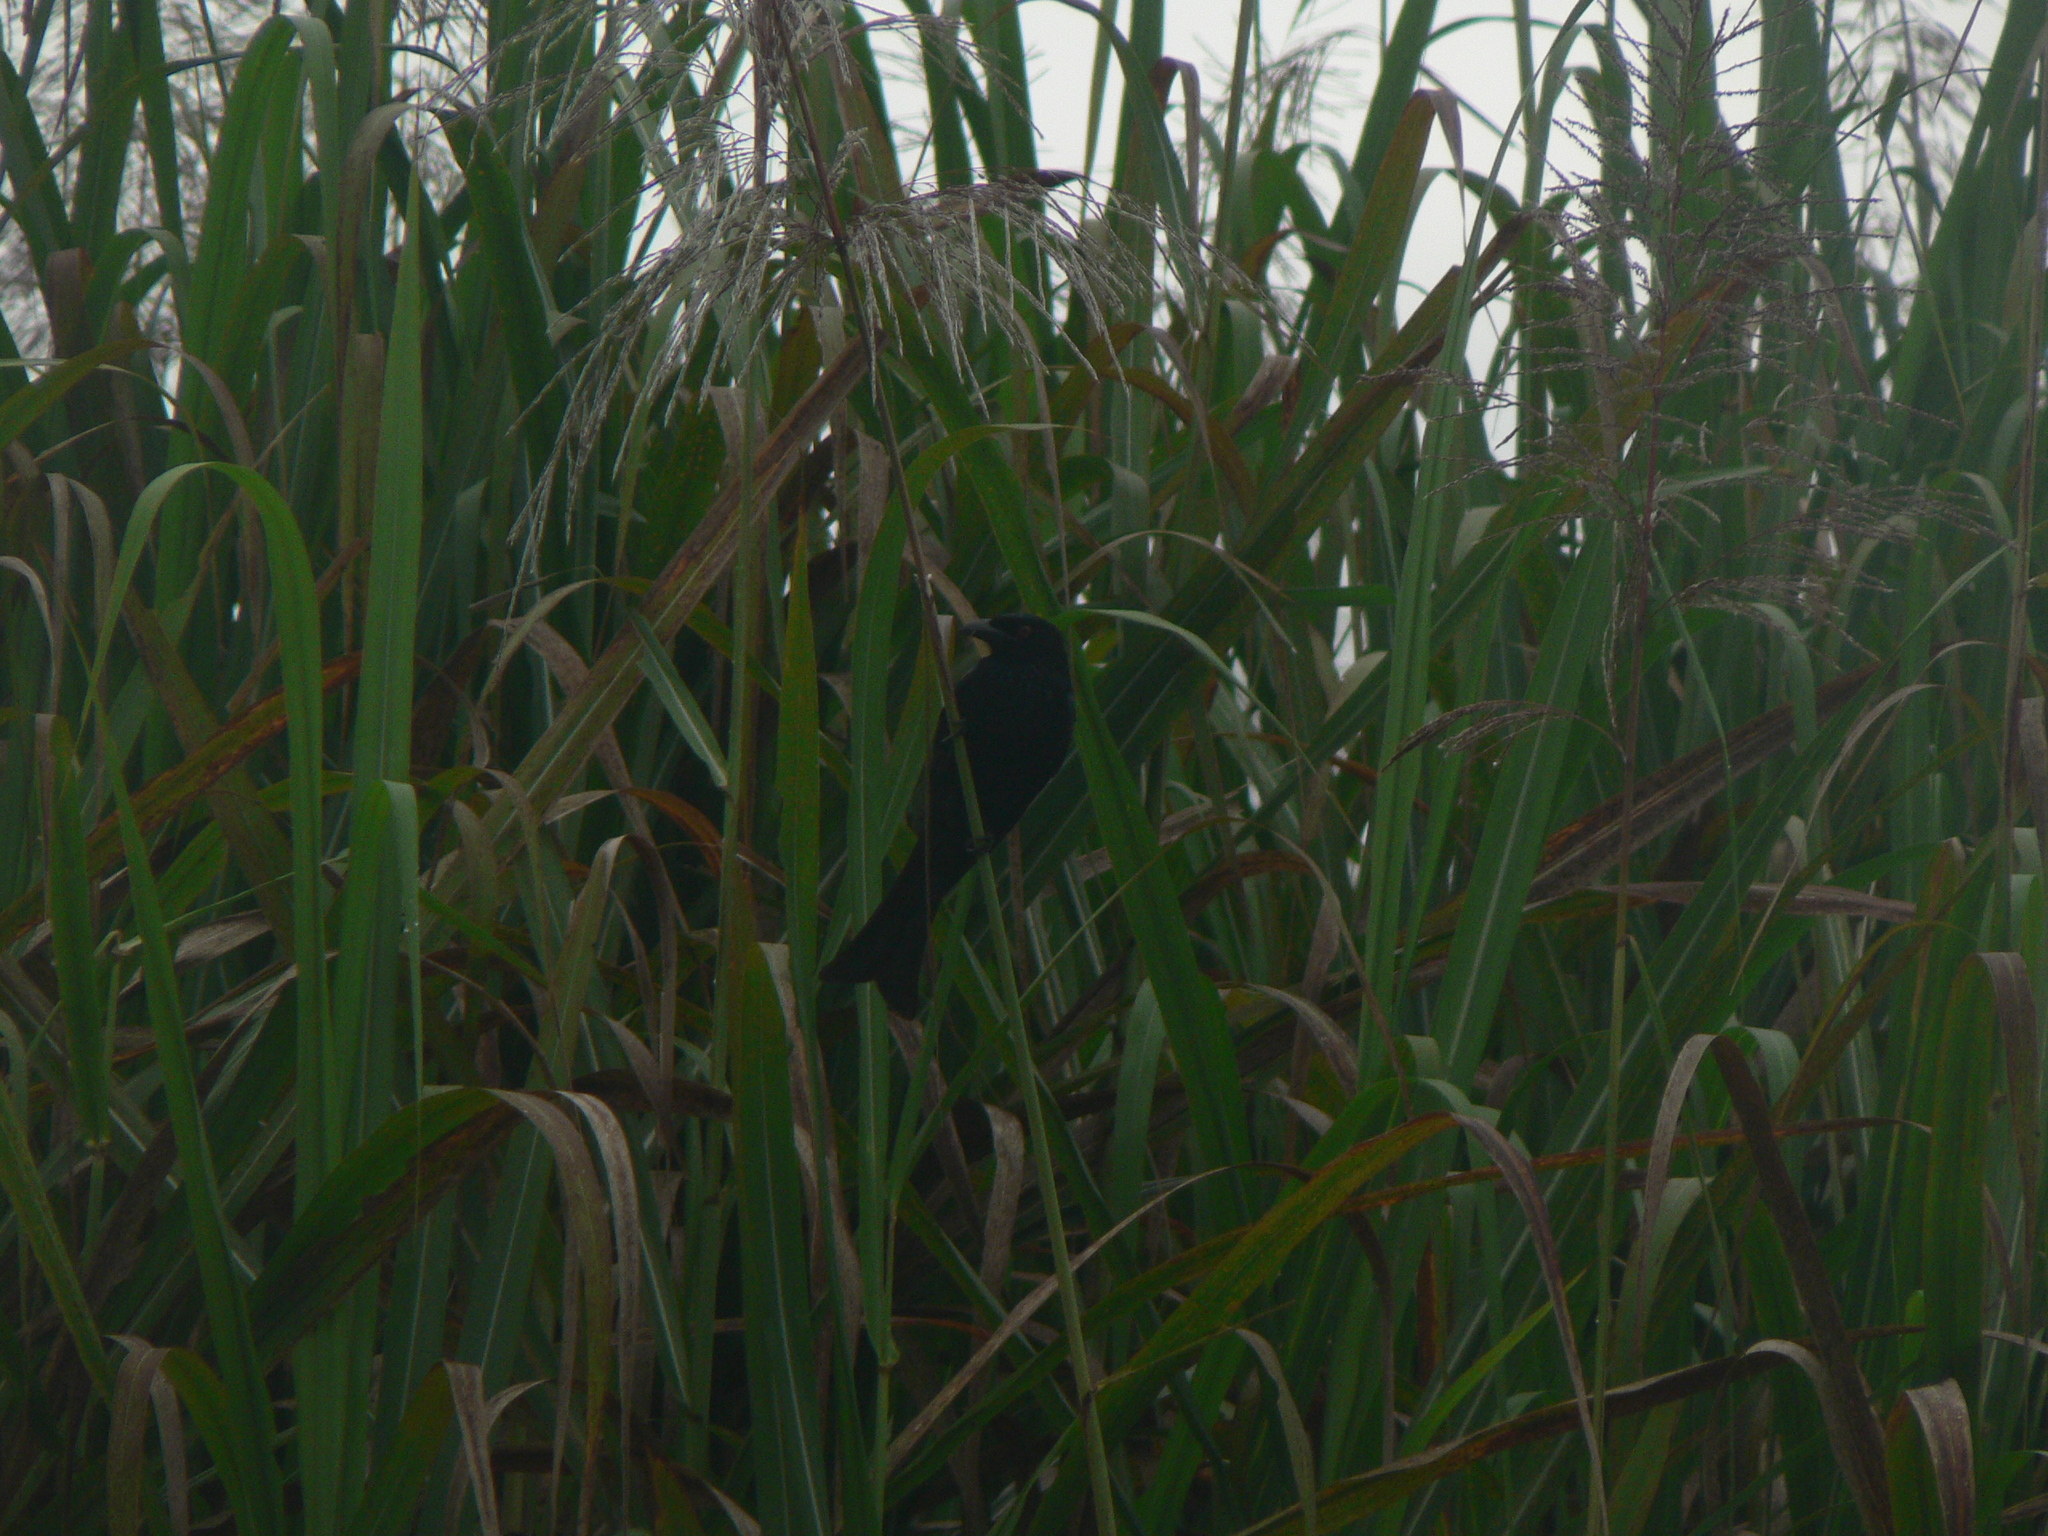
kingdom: Animalia
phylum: Chordata
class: Aves
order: Passeriformes
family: Dicruridae
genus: Dicrurus
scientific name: Dicrurus bracteatus
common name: Spangled drongo
